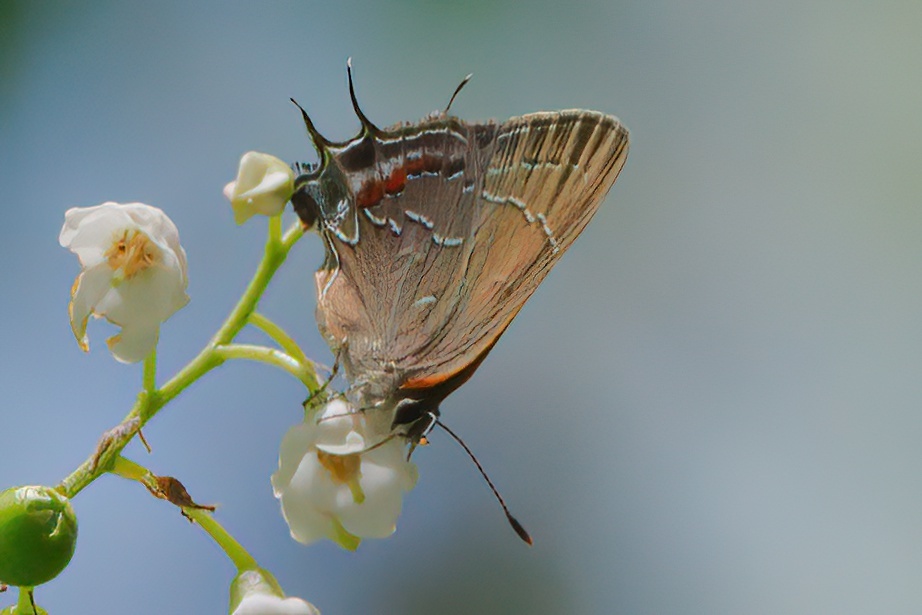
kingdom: Animalia
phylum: Arthropoda
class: Insecta
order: Lepidoptera
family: Lycaenidae
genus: Fixsenia
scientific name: Fixsenia favonius
